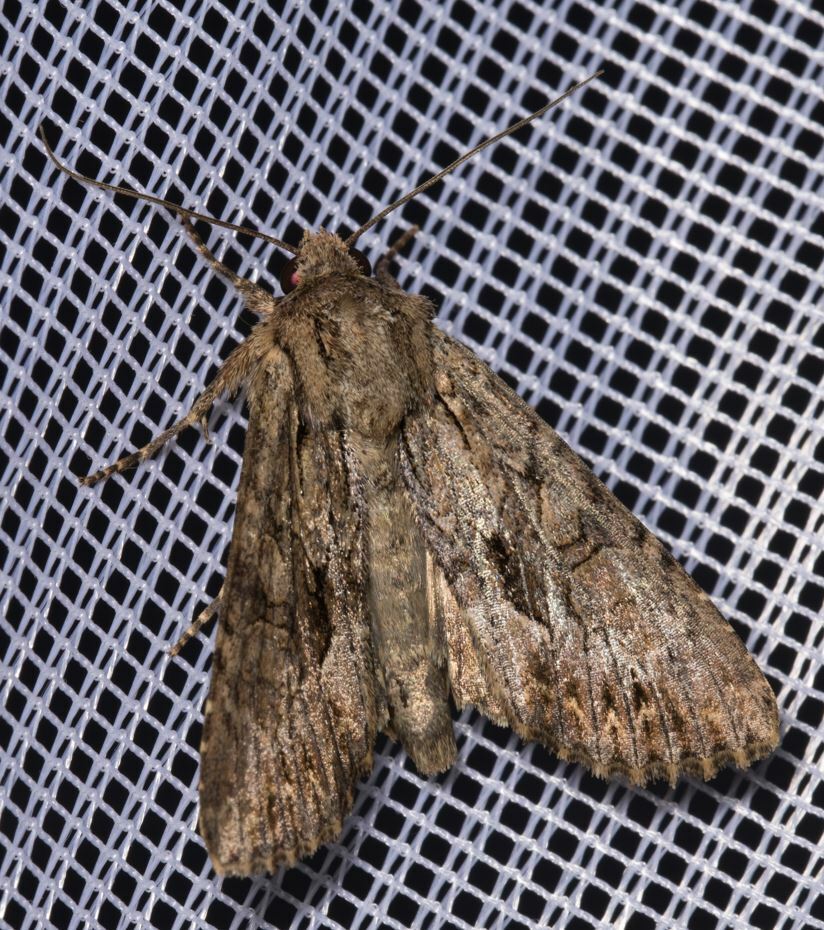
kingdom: Animalia
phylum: Arthropoda
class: Insecta
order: Lepidoptera
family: Noctuidae
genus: Apamea
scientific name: Apamea monoglypha
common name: Dark arches
